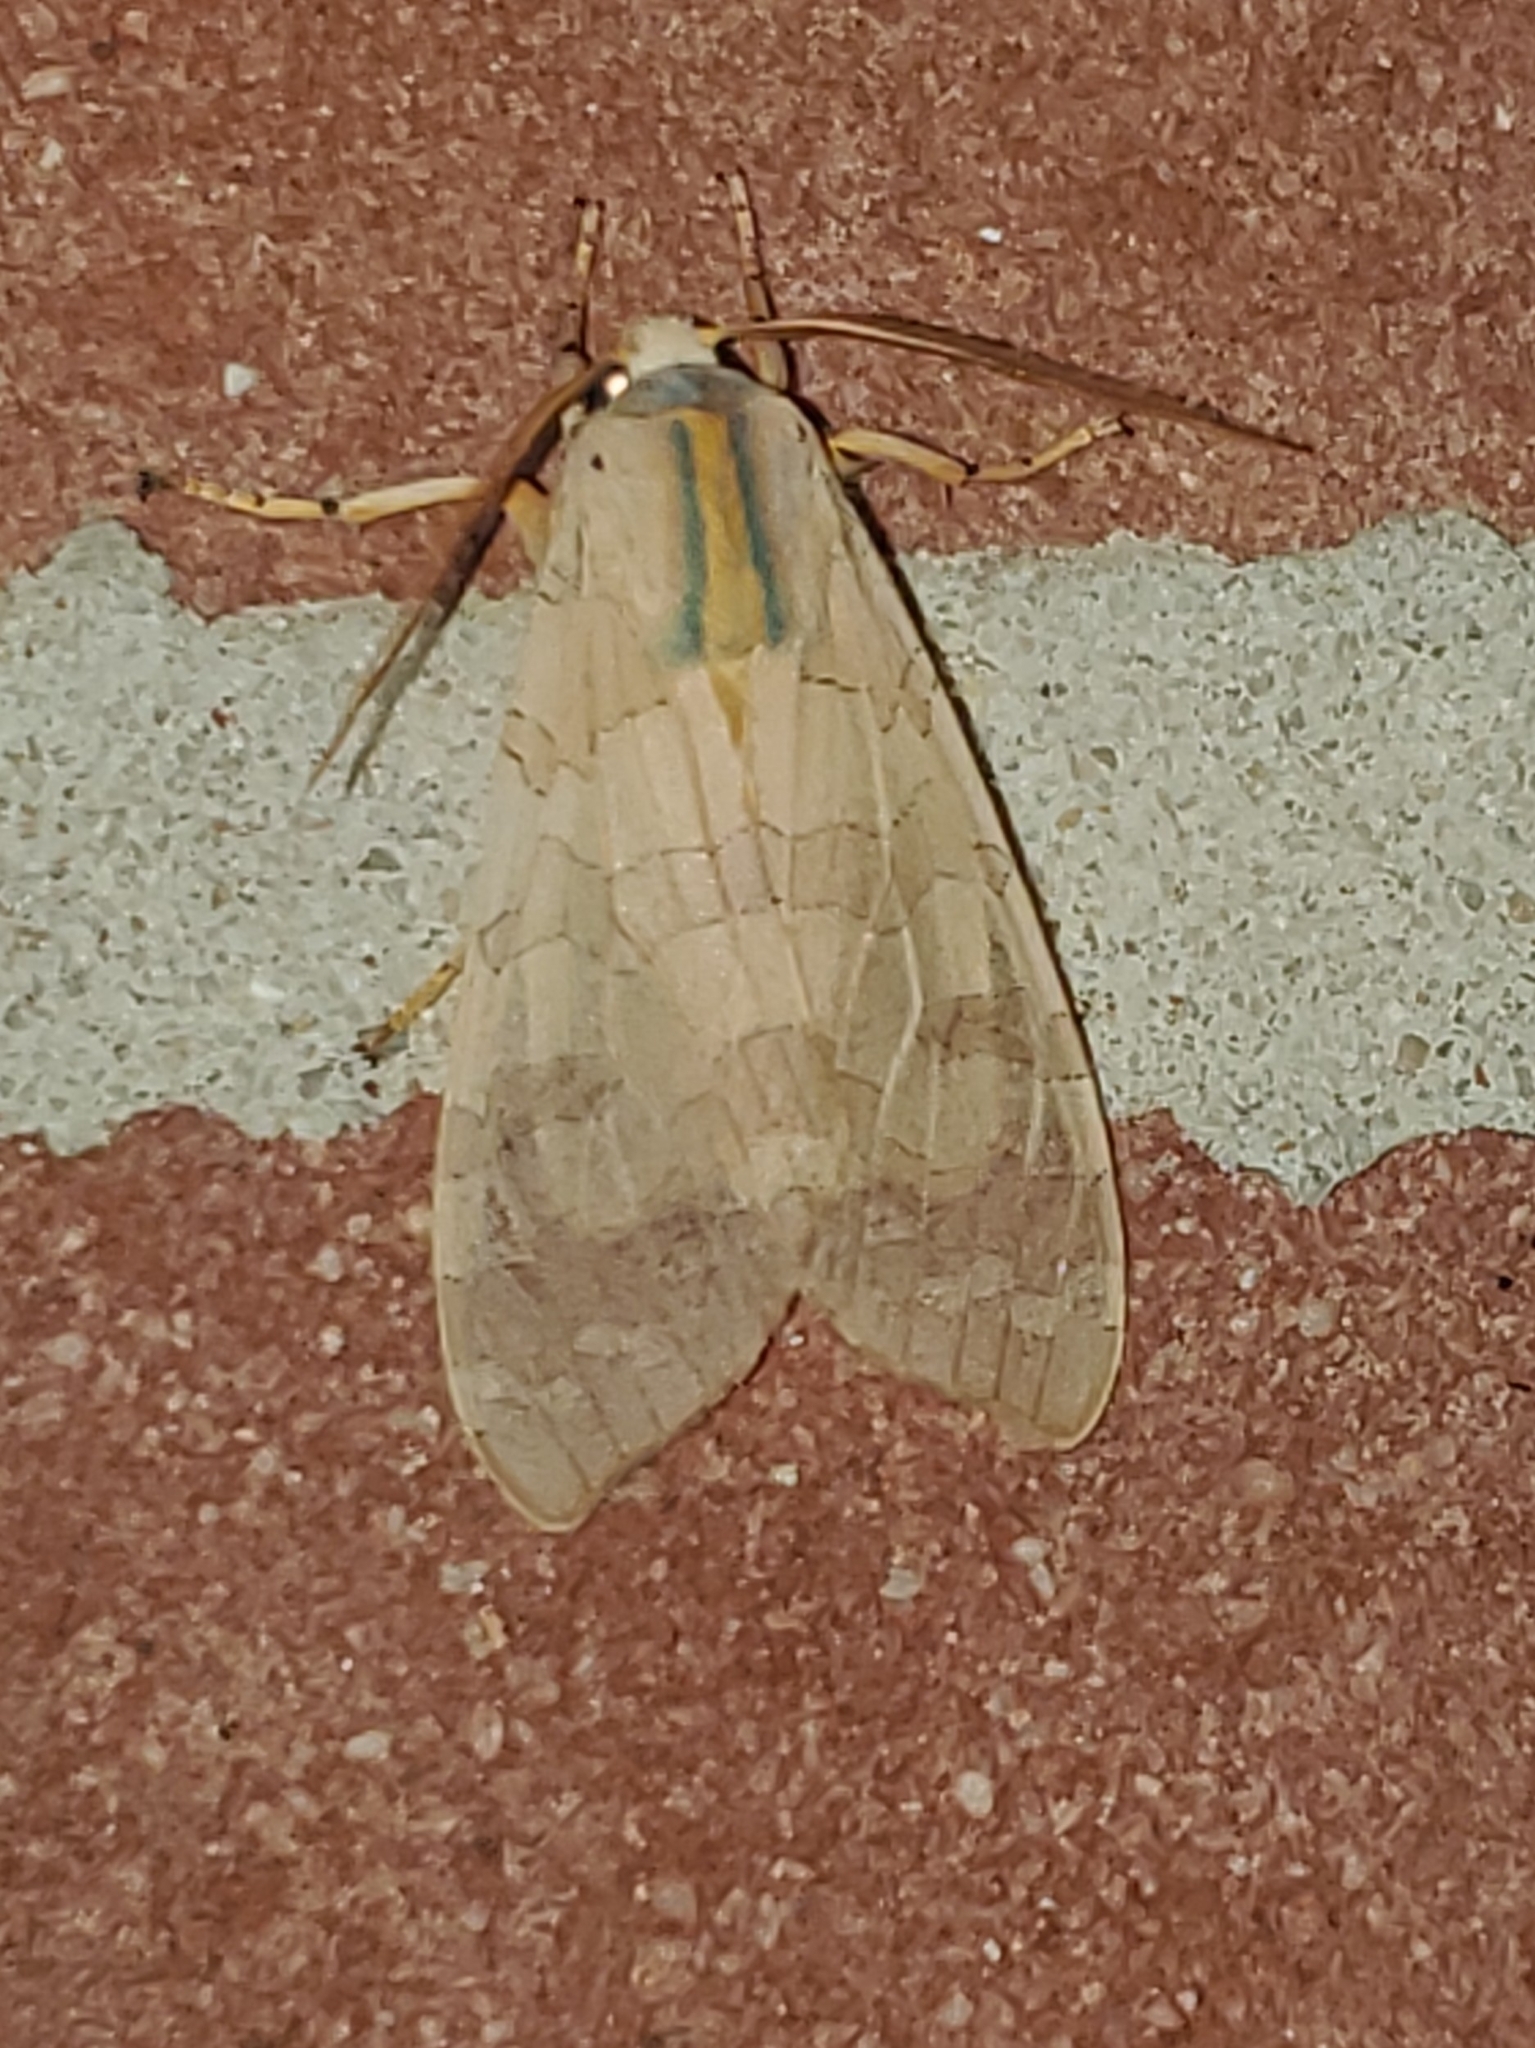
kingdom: Animalia
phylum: Arthropoda
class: Insecta
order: Lepidoptera
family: Erebidae
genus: Halysidota
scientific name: Halysidota
